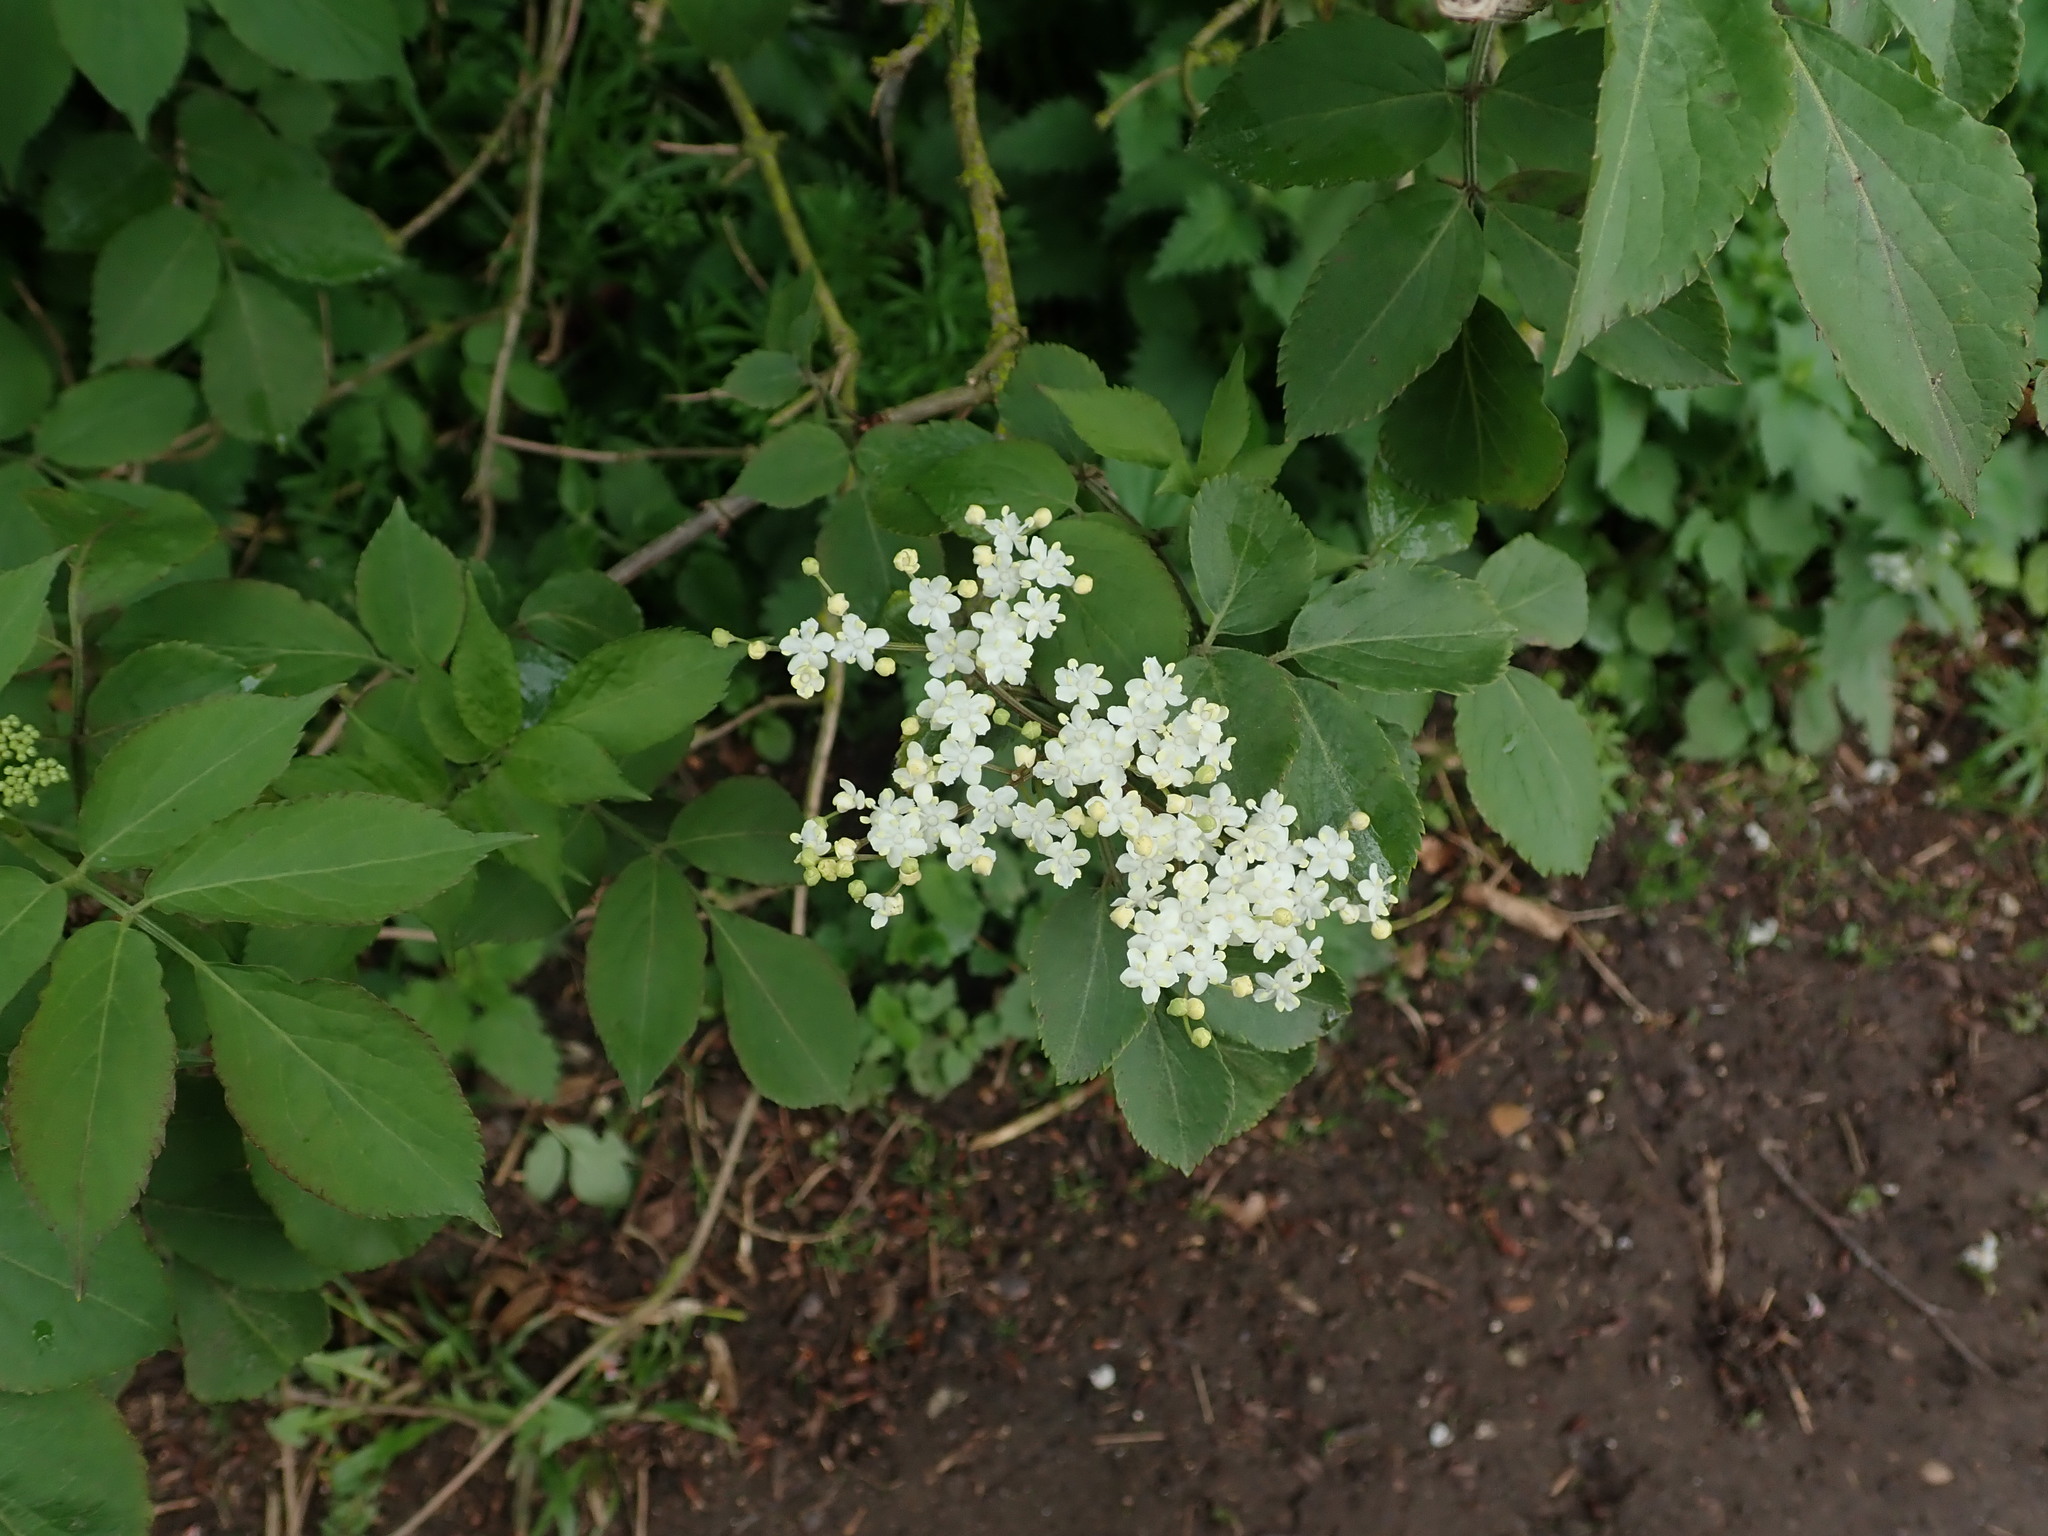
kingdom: Plantae
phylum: Tracheophyta
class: Magnoliopsida
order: Dipsacales
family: Viburnaceae
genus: Sambucus
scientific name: Sambucus nigra
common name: Elder
